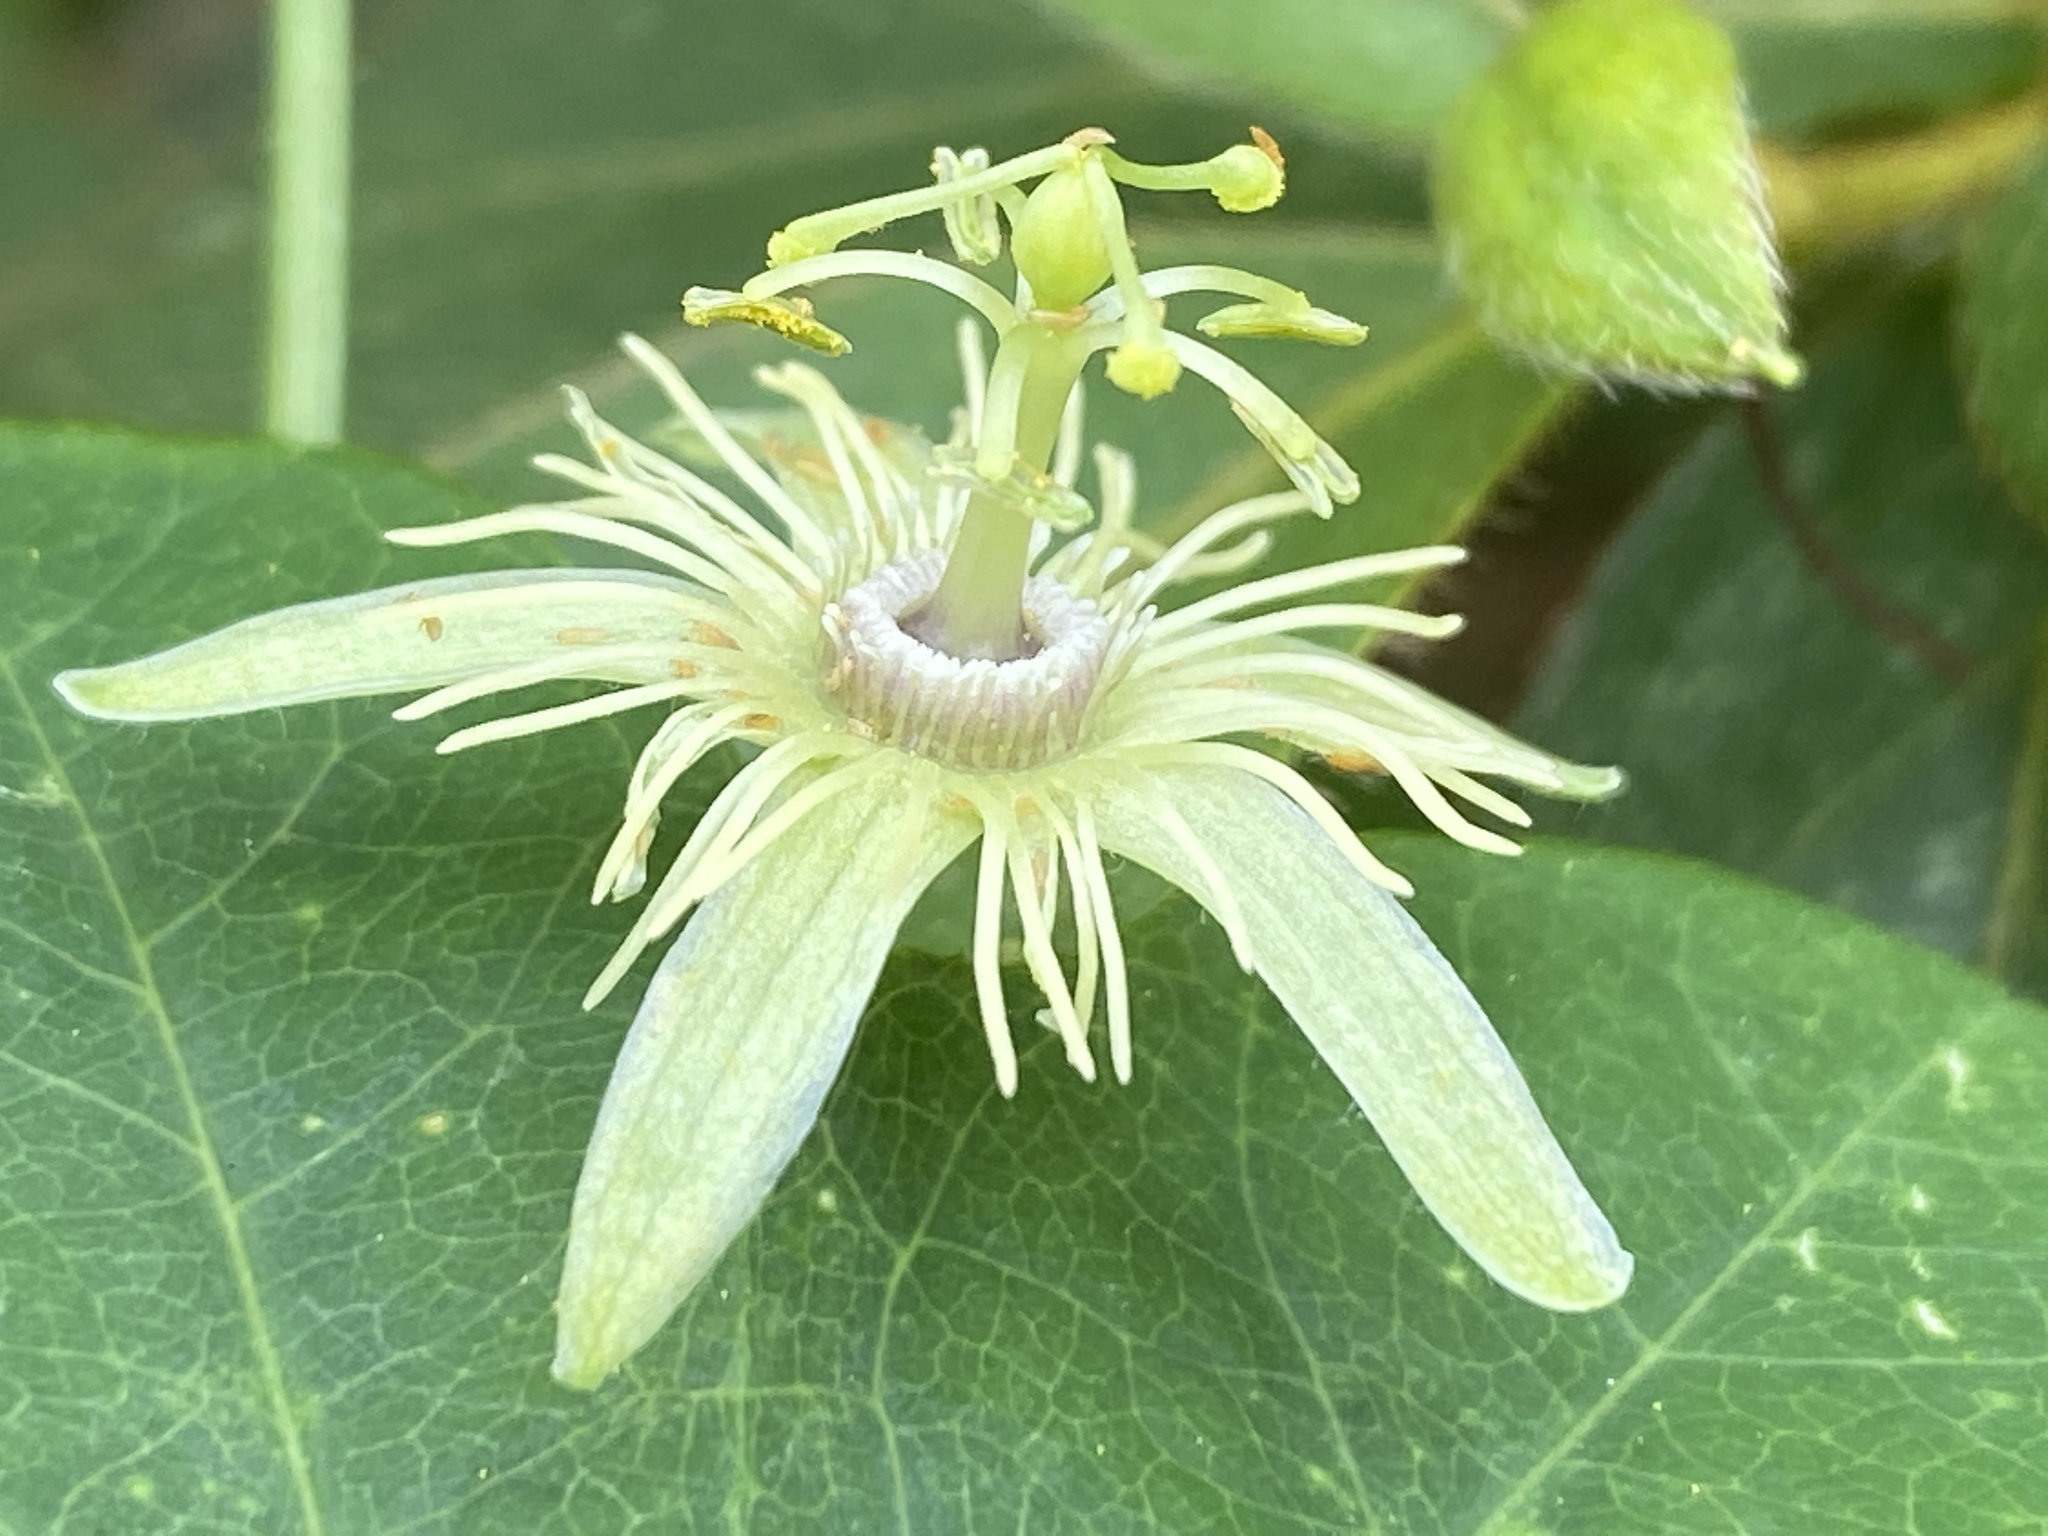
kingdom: Plantae
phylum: Tracheophyta
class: Magnoliopsida
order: Malpighiales
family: Passifloraceae
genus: Passiflora
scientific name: Passiflora lutea
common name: Yellow passionflower
